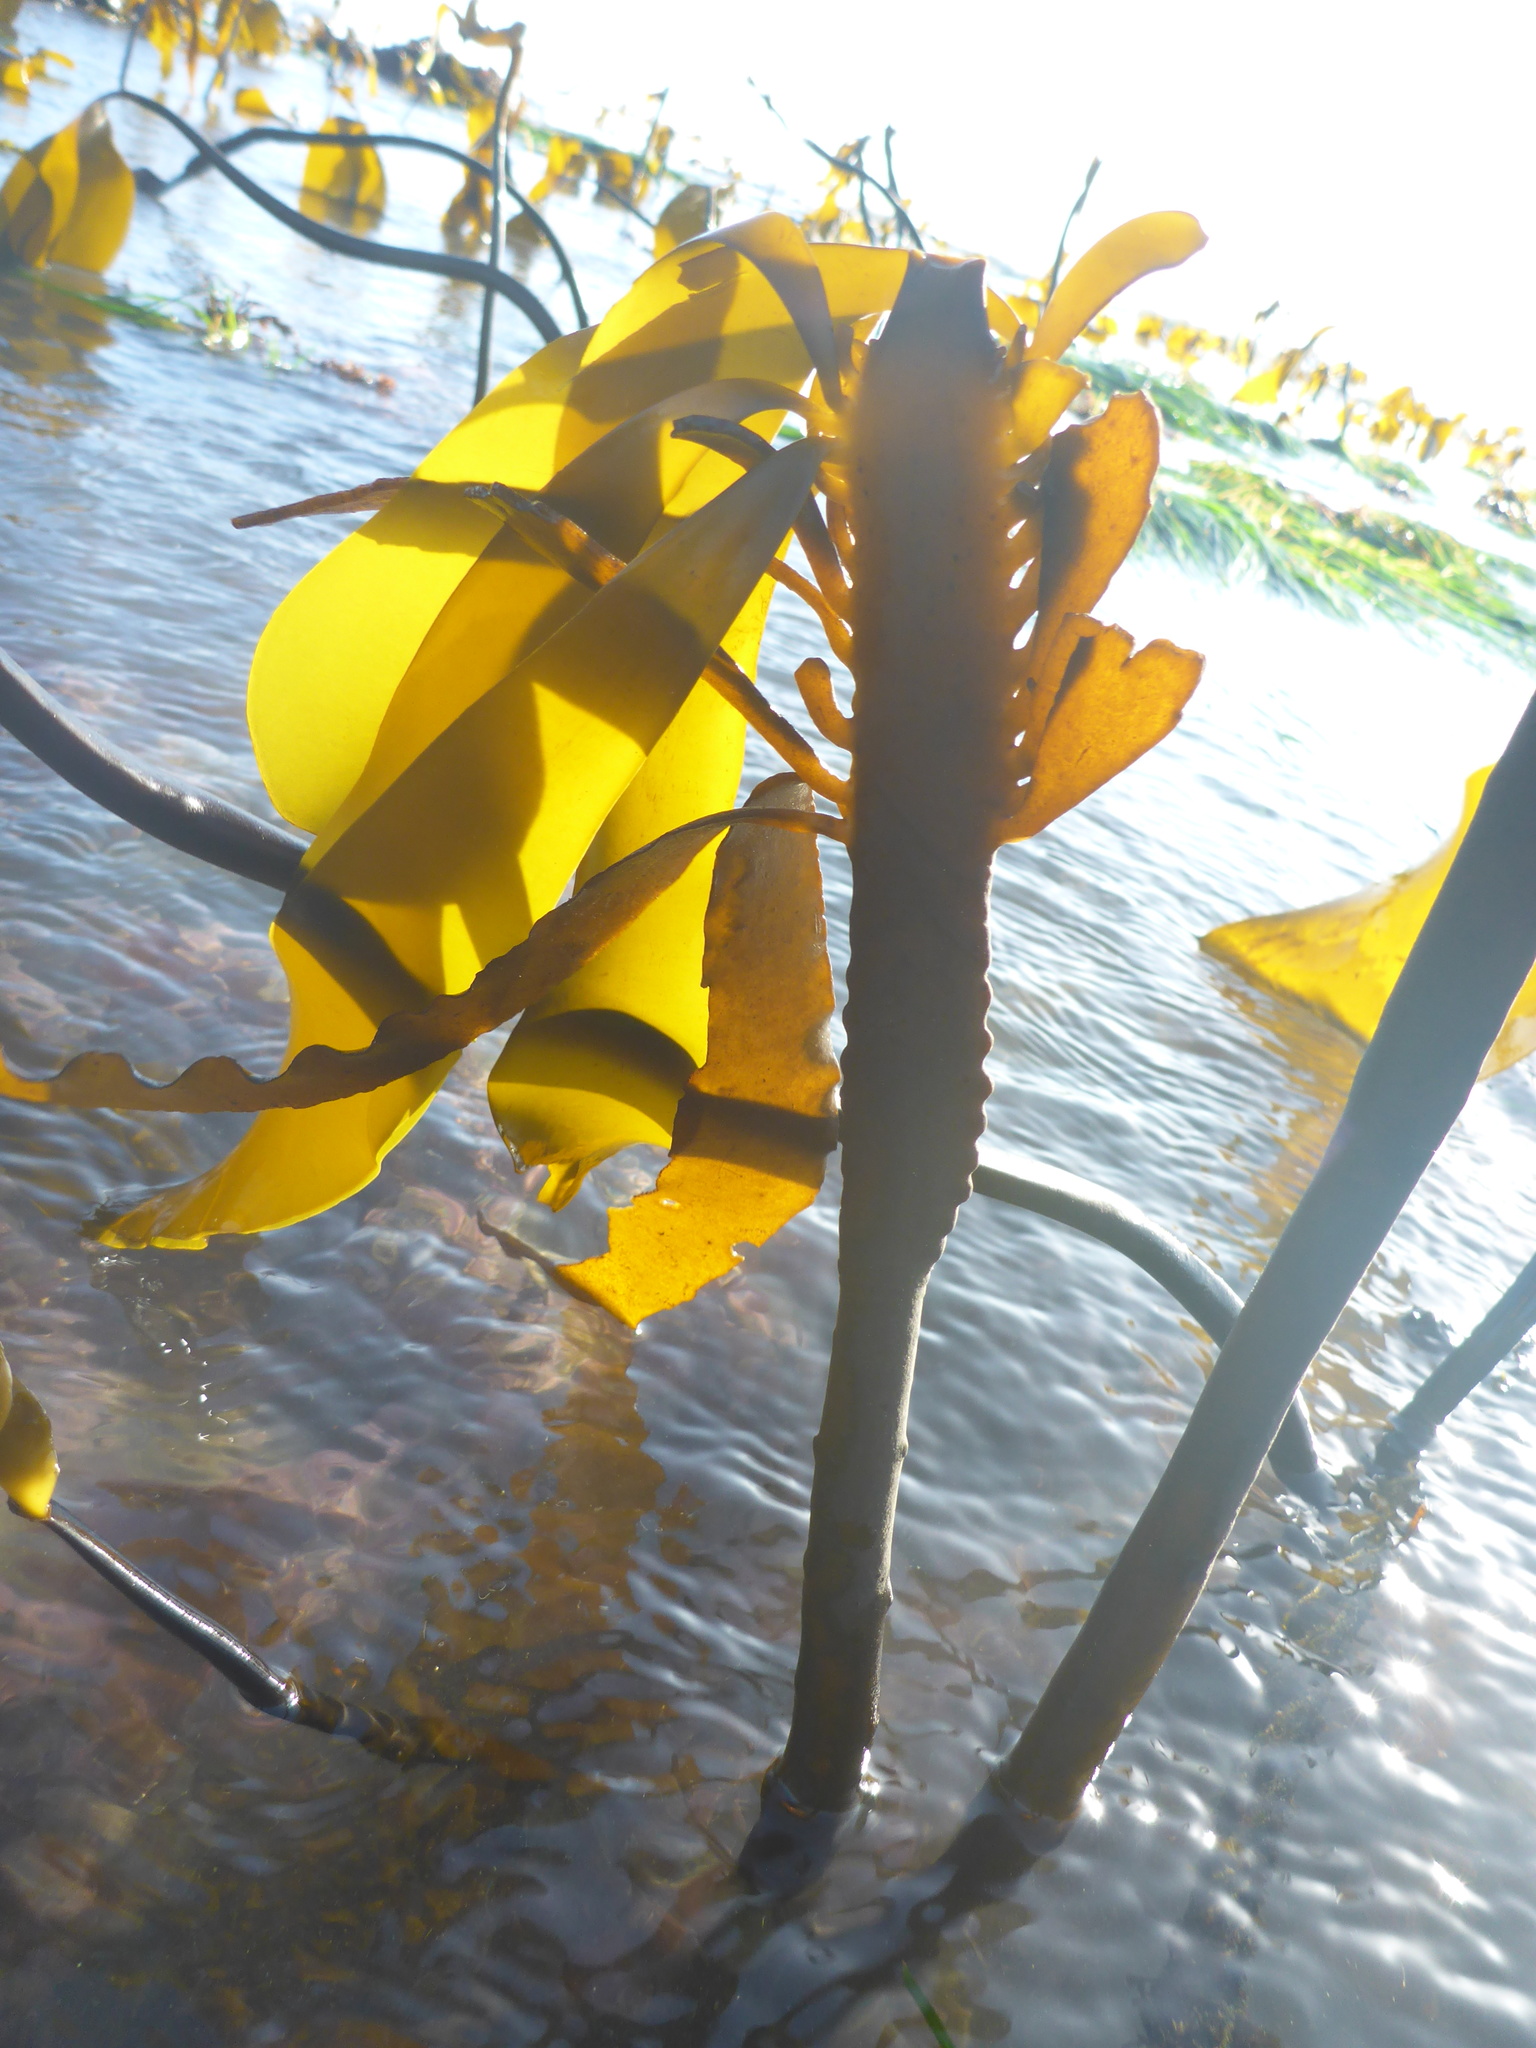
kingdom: Chromista
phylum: Ochrophyta
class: Phaeophyceae
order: Laminariales
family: Laminariaceae
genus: Laminaria
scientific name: Laminaria setchellii
